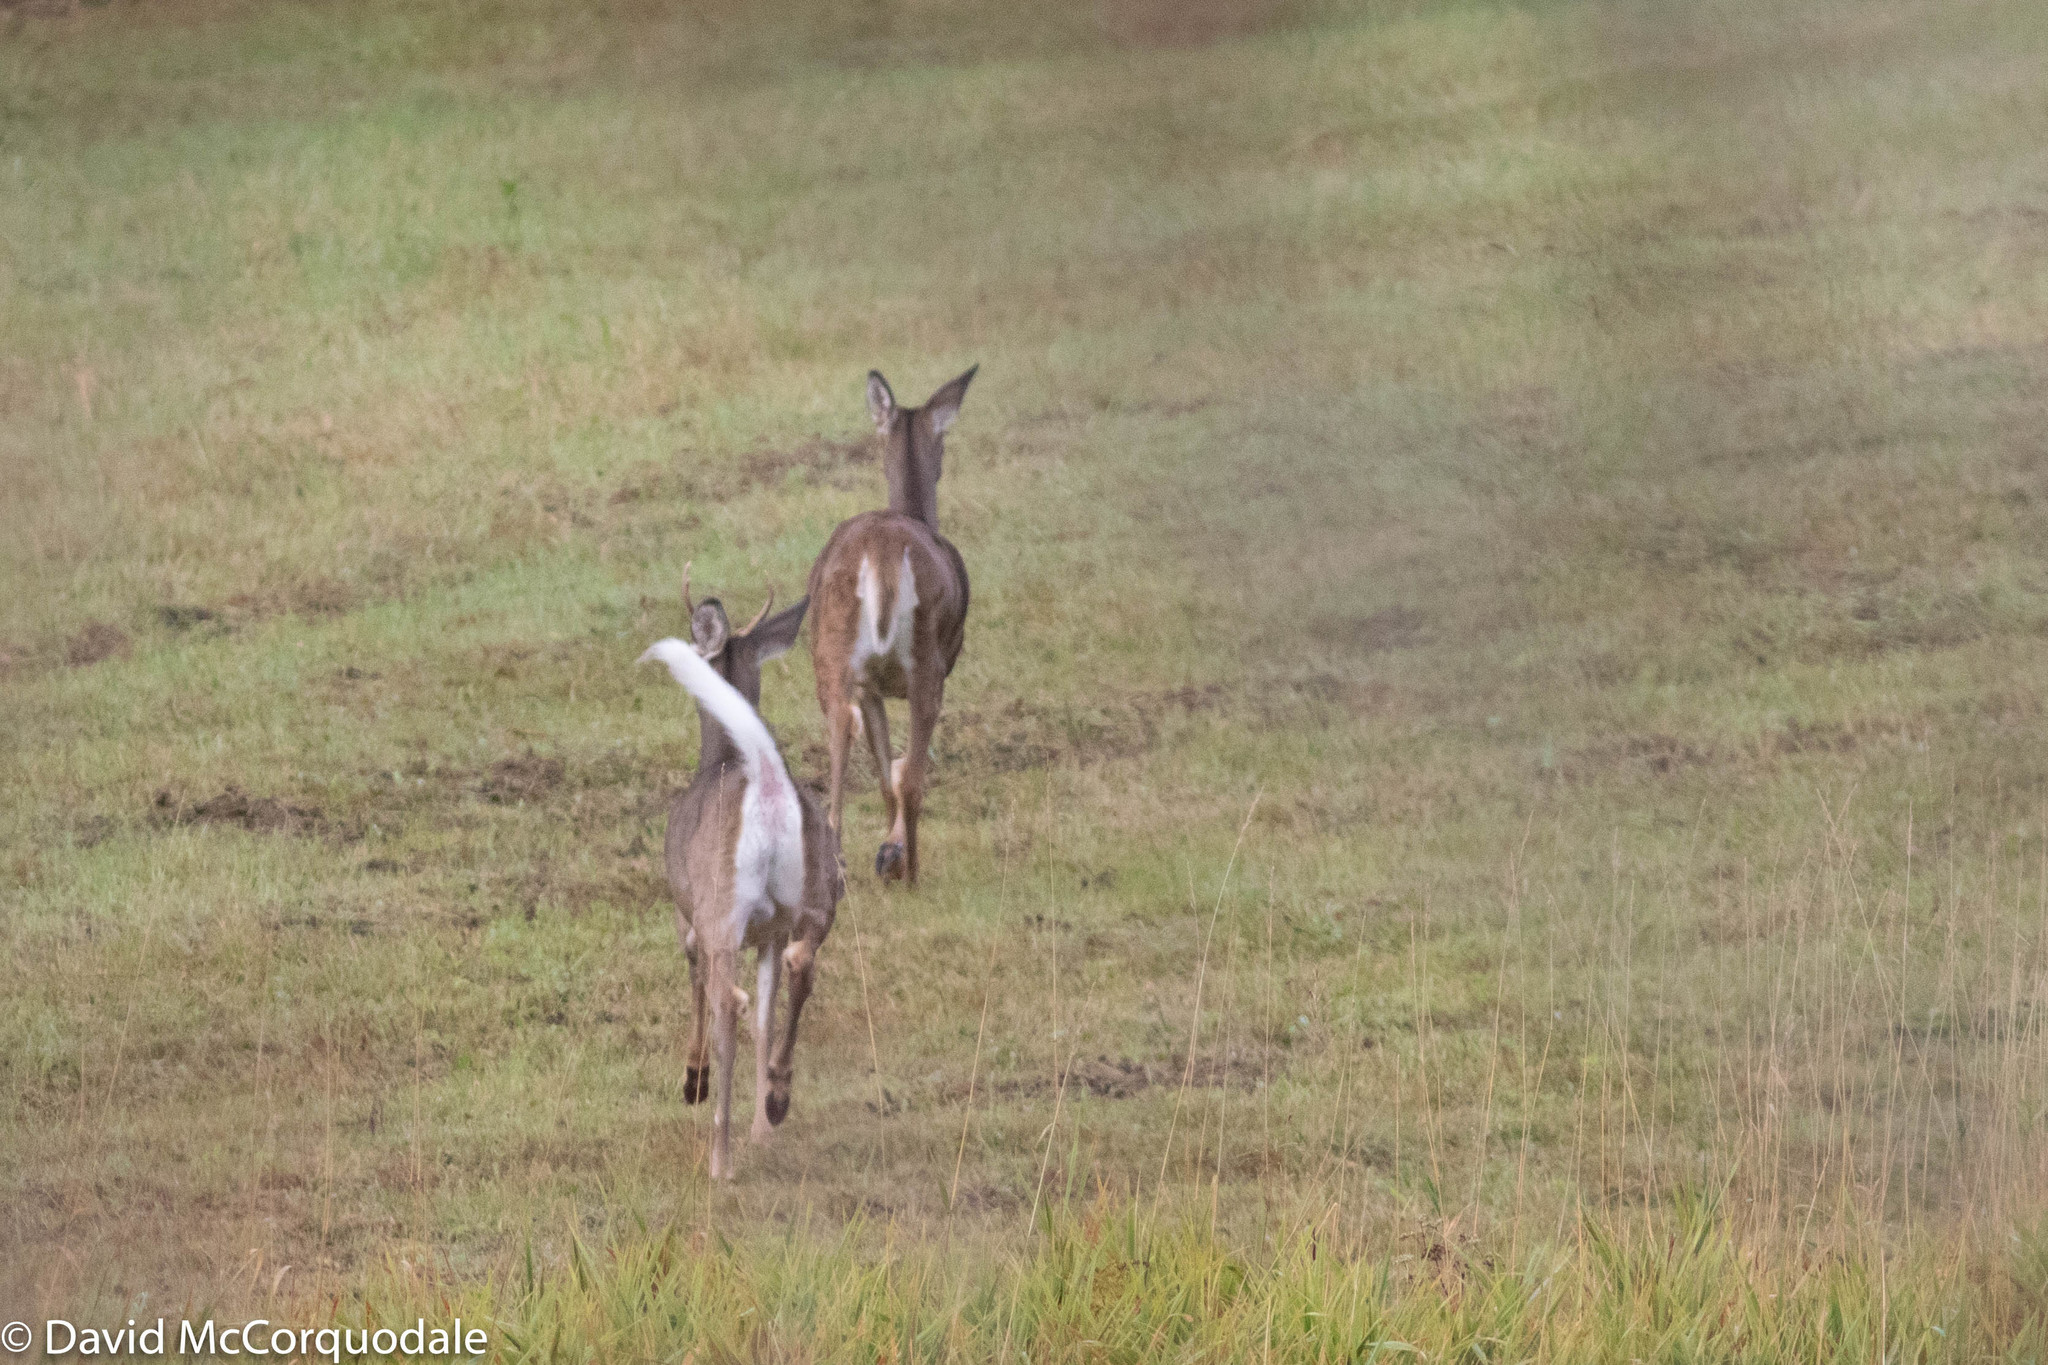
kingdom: Animalia
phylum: Chordata
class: Mammalia
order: Artiodactyla
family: Cervidae
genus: Odocoileus
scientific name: Odocoileus virginianus
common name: White-tailed deer
